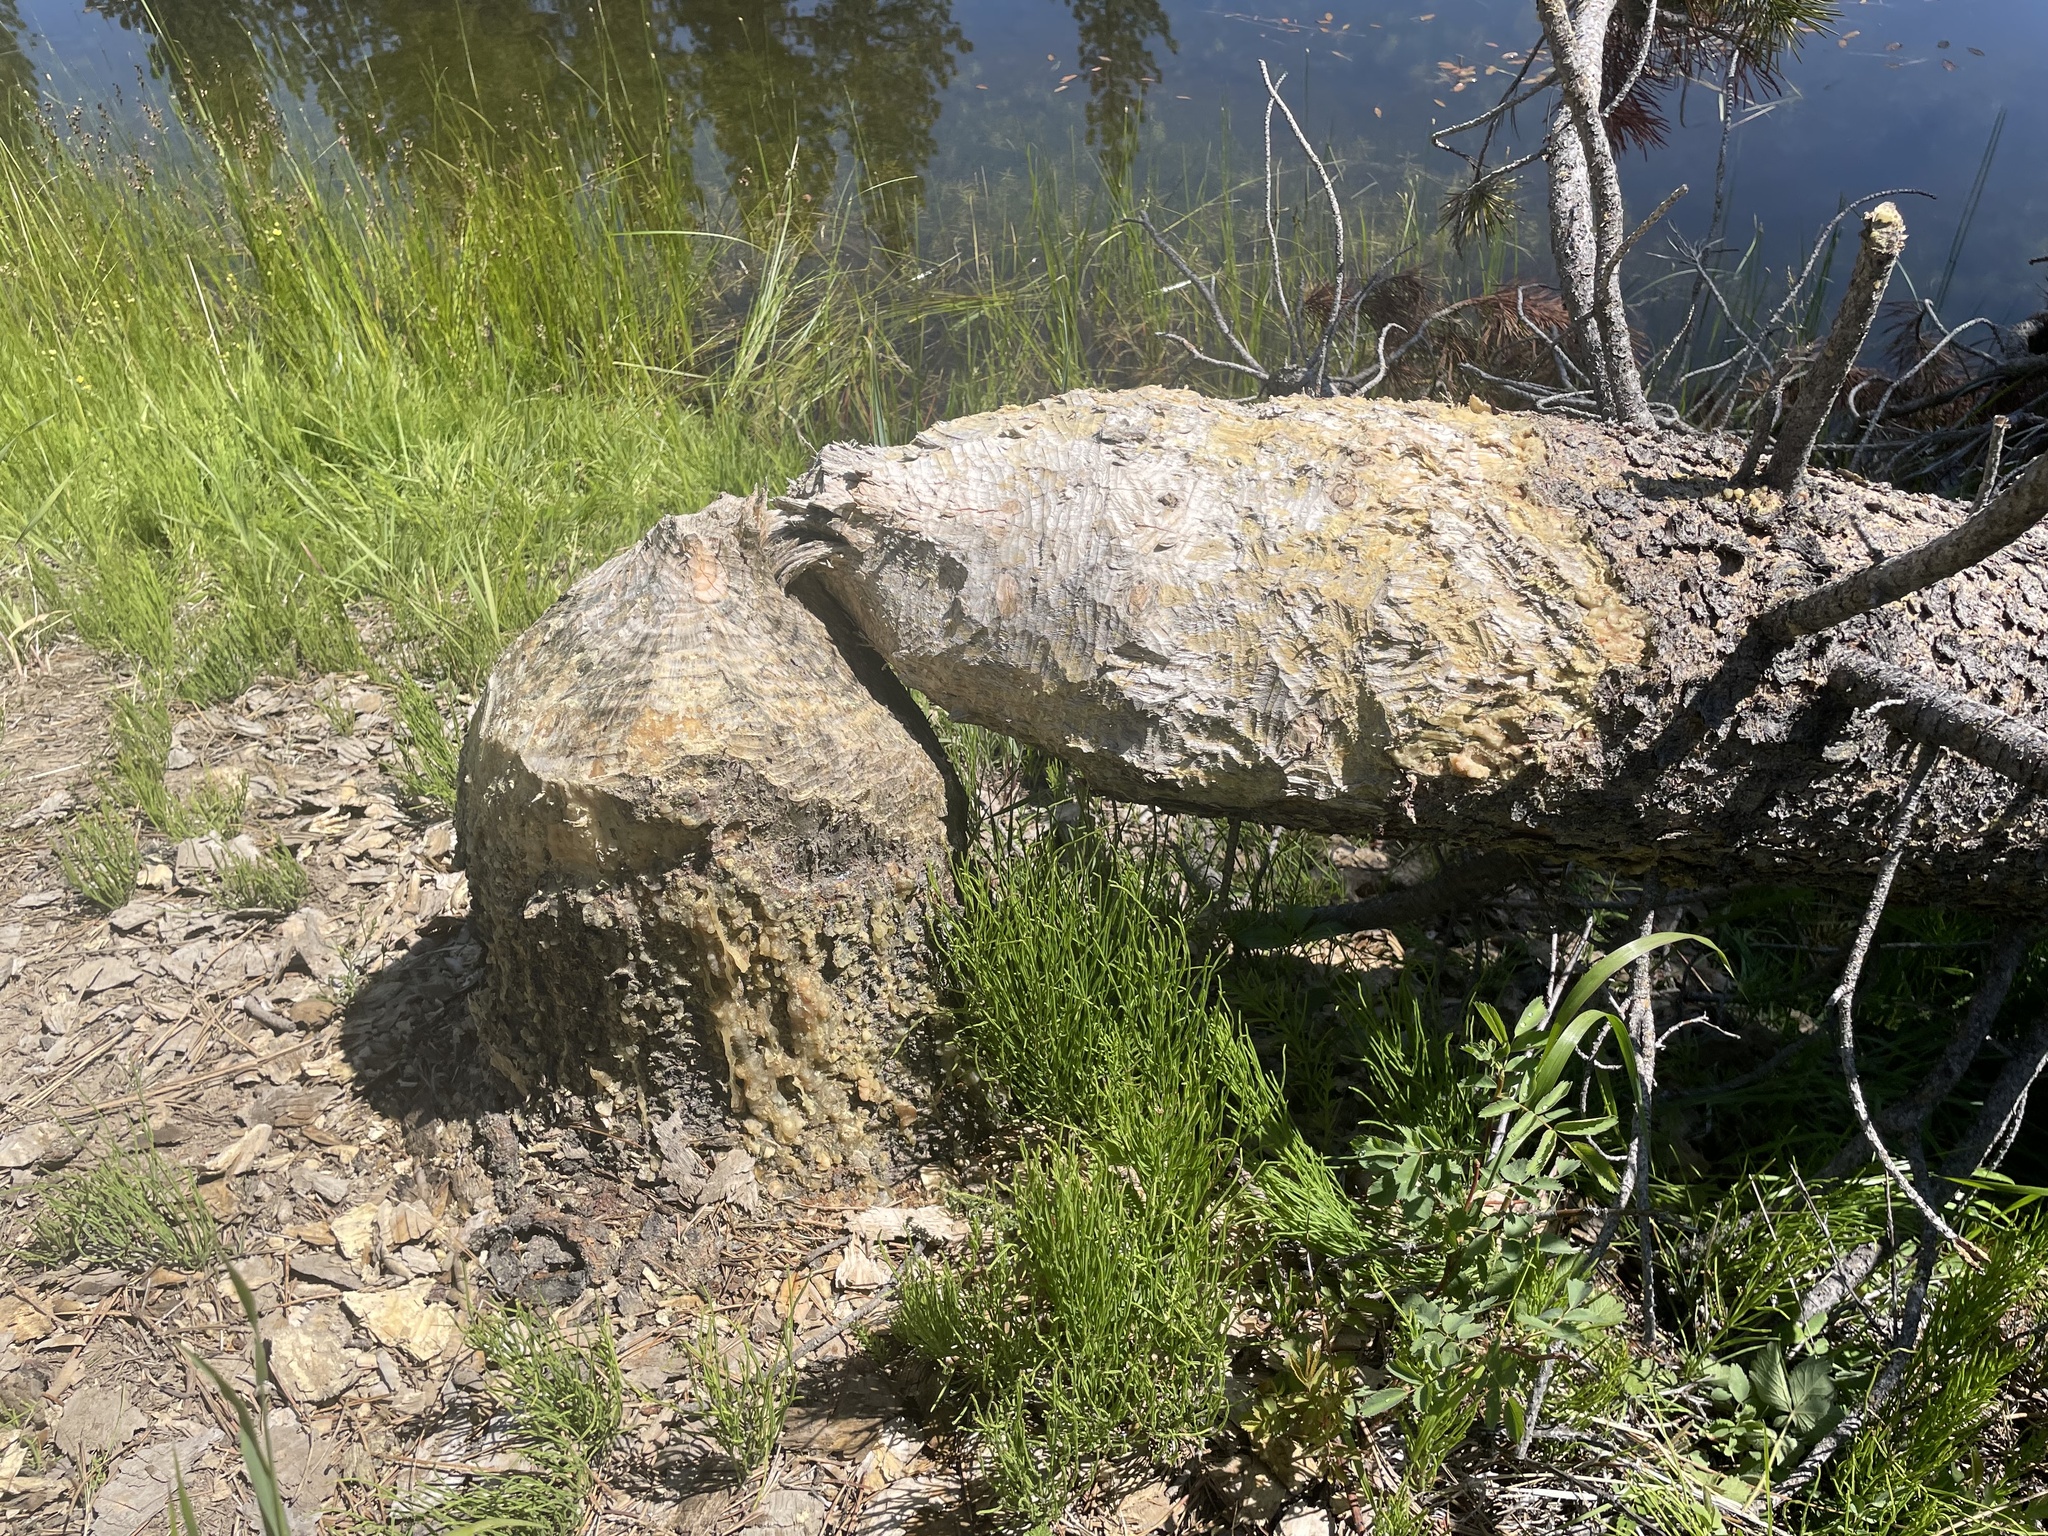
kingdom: Animalia
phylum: Chordata
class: Mammalia
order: Rodentia
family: Castoridae
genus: Castor
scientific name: Castor canadensis
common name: American beaver
